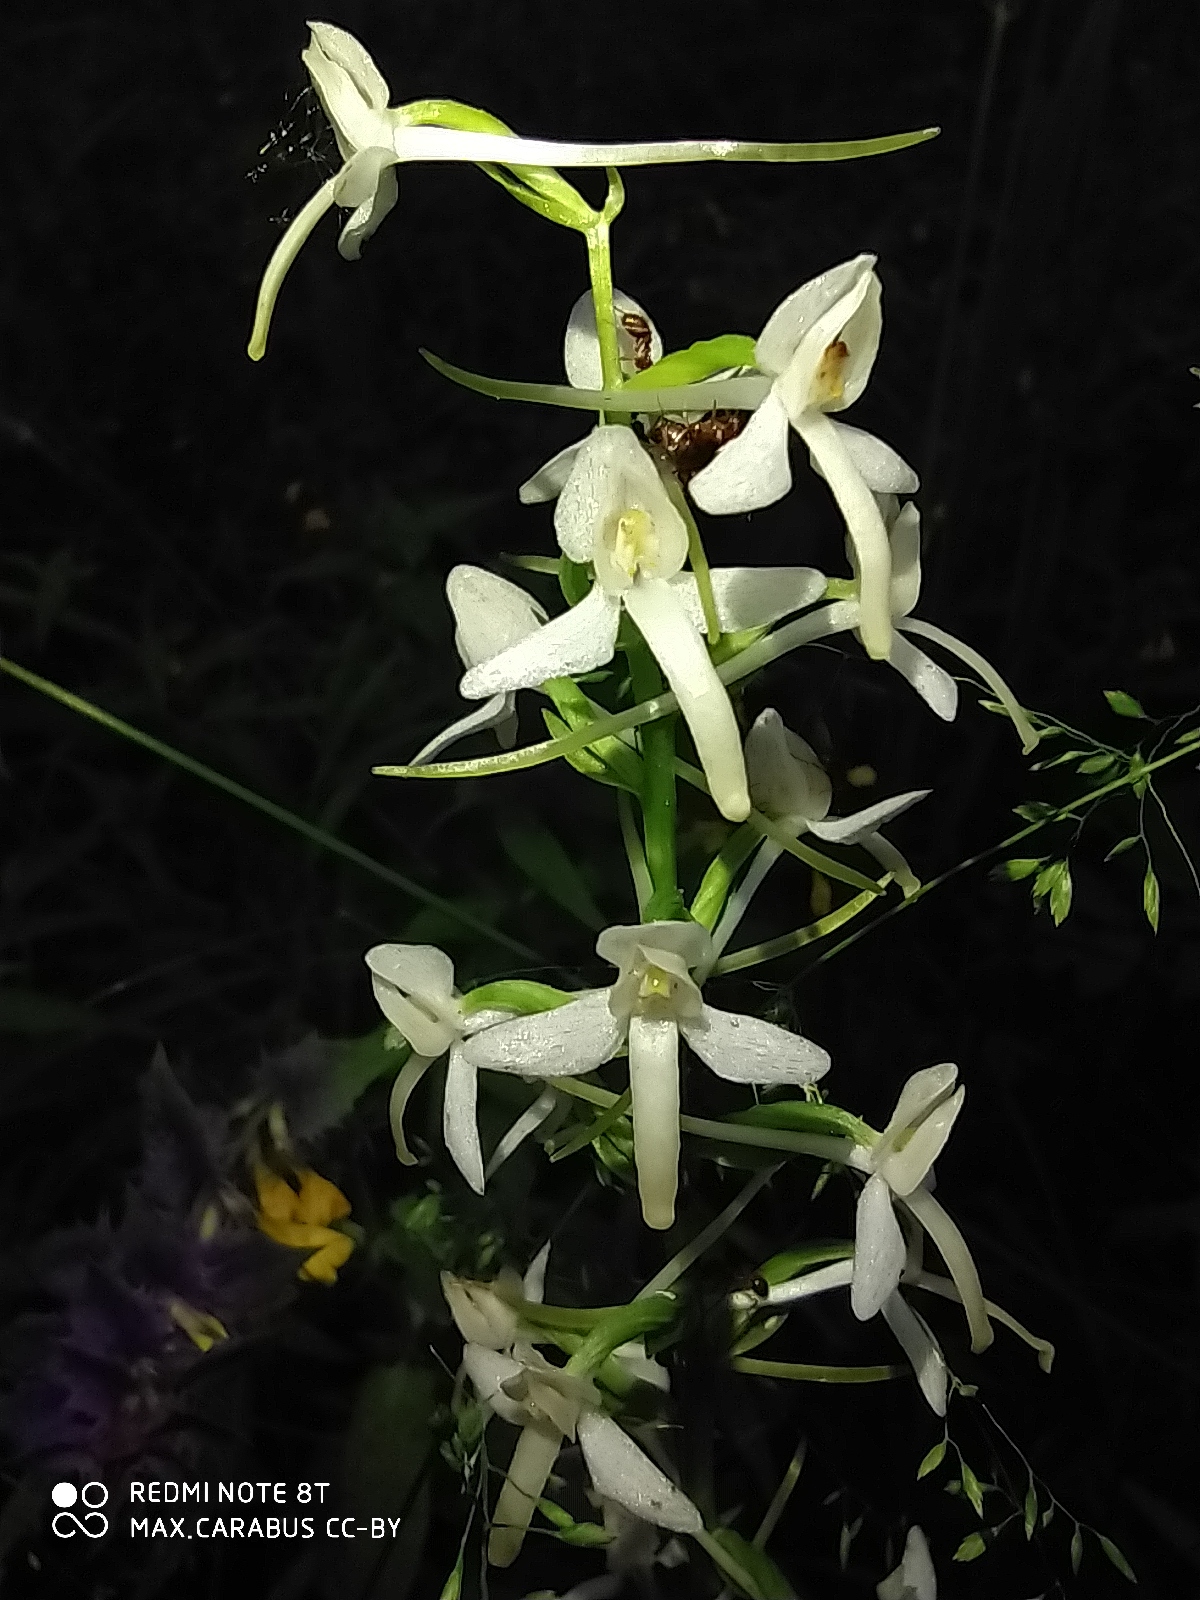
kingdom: Plantae
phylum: Tracheophyta
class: Liliopsida
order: Asparagales
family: Orchidaceae
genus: Platanthera
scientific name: Platanthera bifolia
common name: Lesser butterfly-orchid
